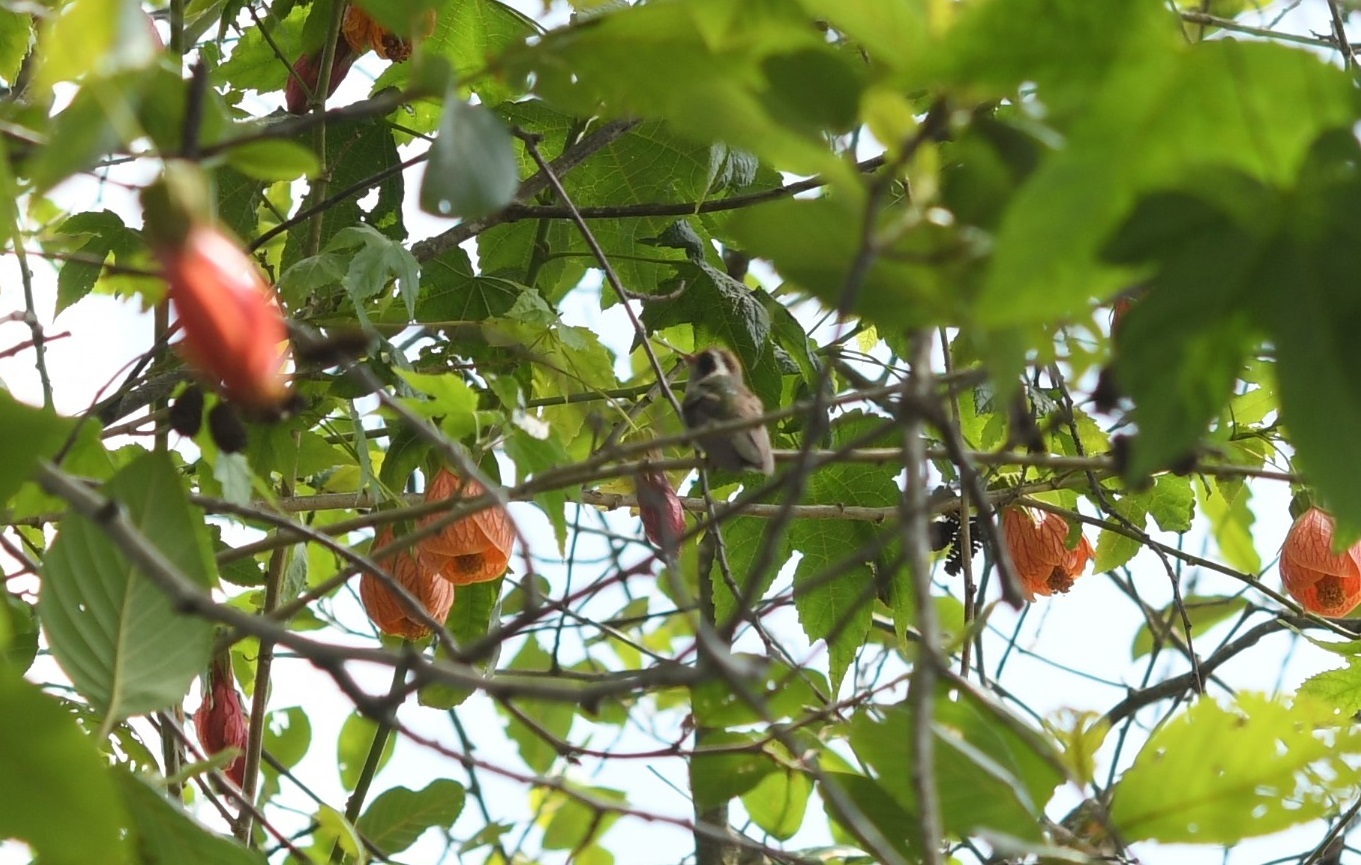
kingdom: Animalia
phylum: Chordata
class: Aves
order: Apodiformes
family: Trochilidae
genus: Basilinna
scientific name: Basilinna leucotis
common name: White-eared hummingbird
